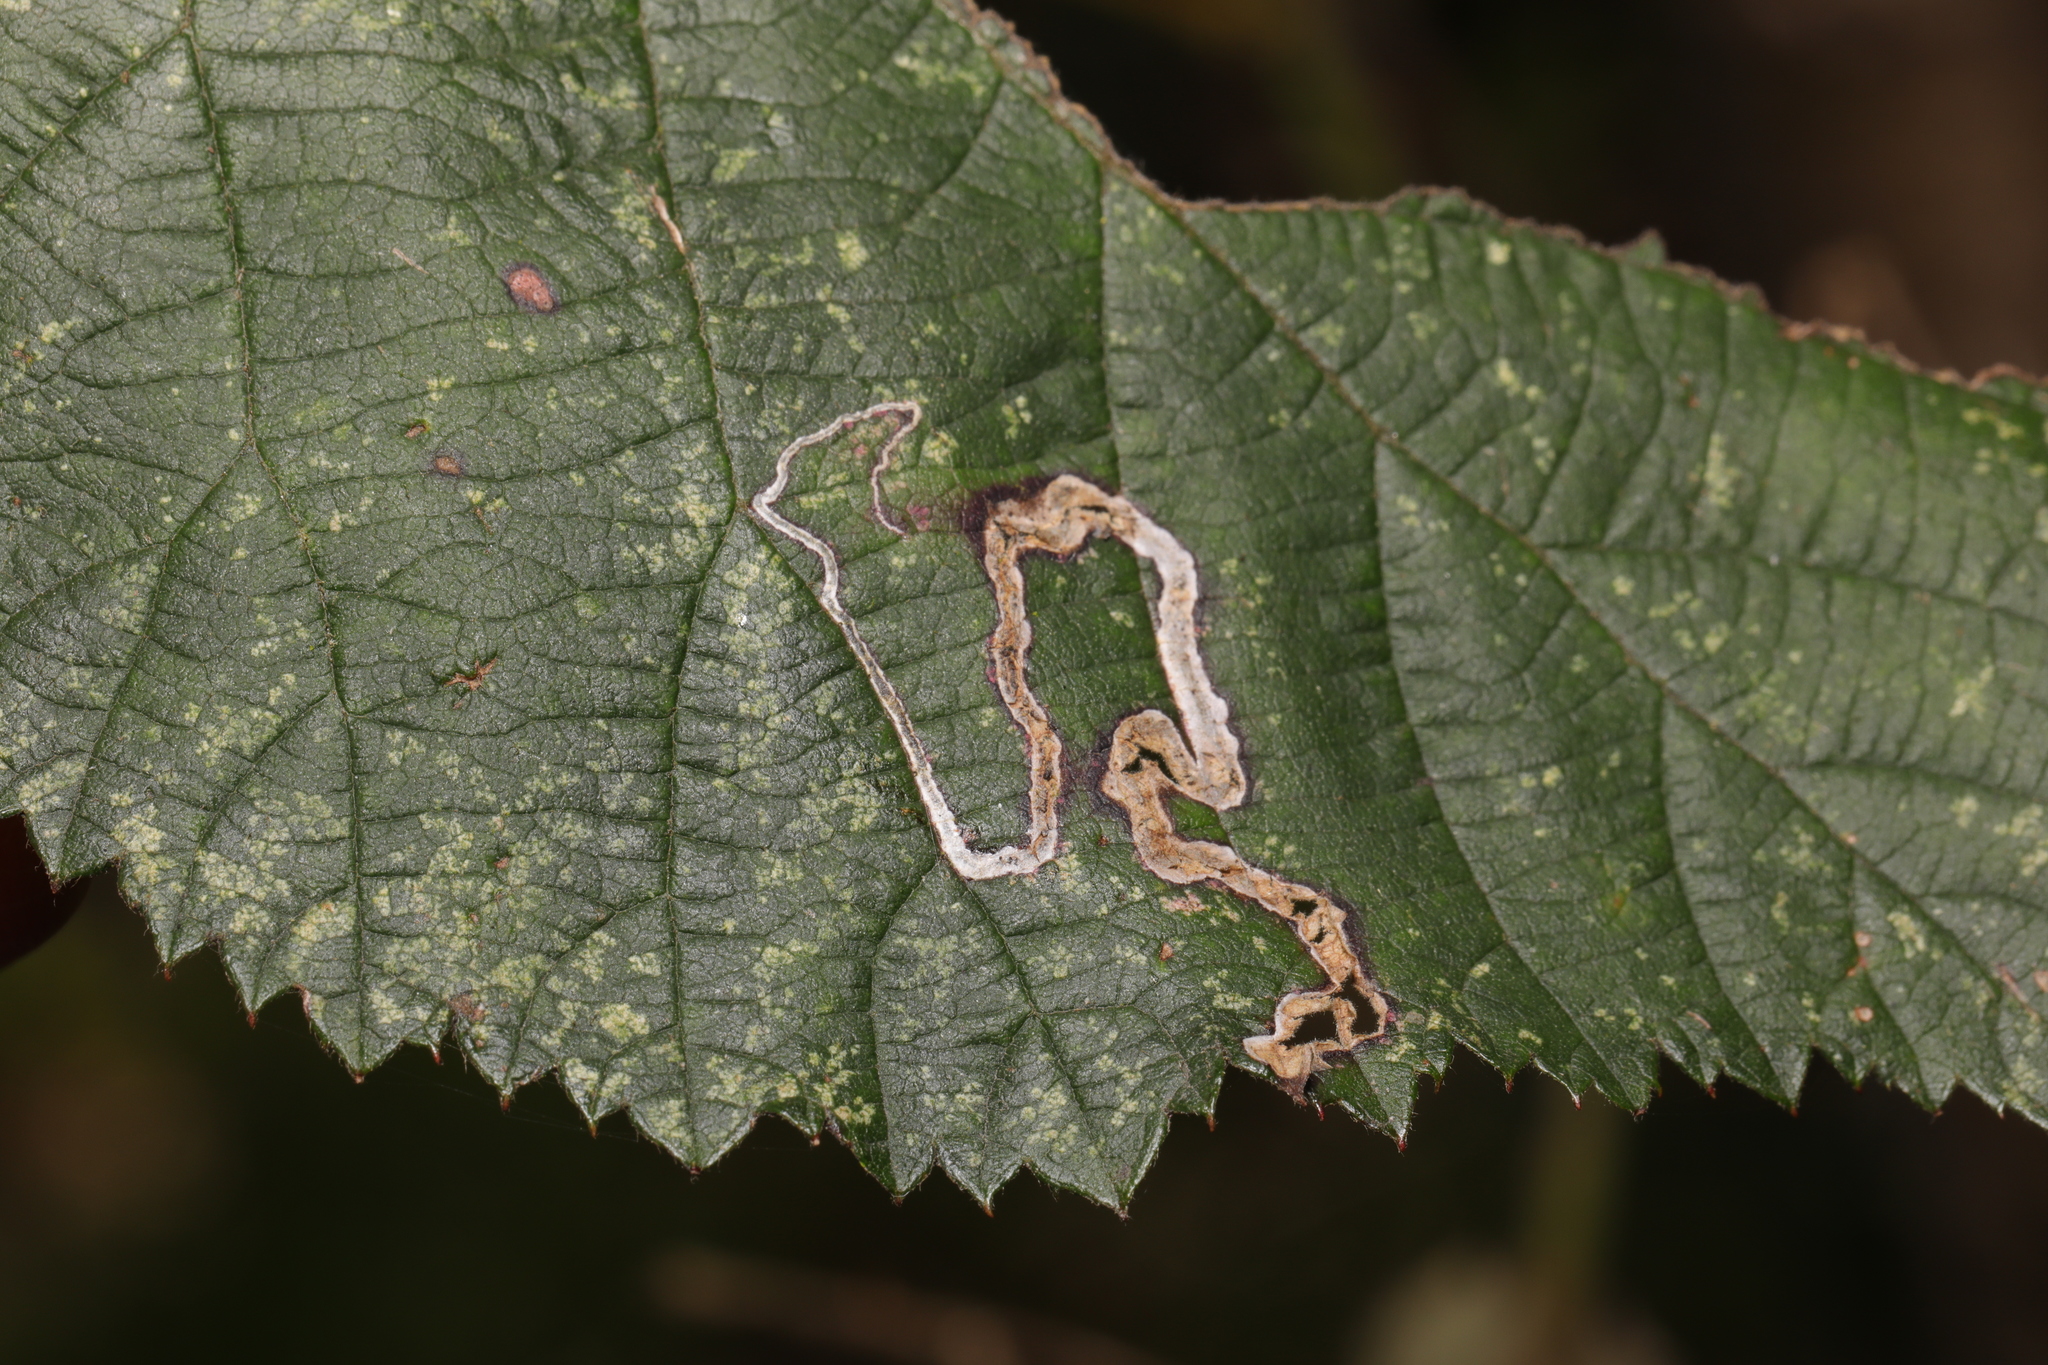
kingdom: Animalia
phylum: Arthropoda
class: Insecta
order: Lepidoptera
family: Nepticulidae
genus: Stigmella
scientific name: Stigmella aurella
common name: Golden pigmy
